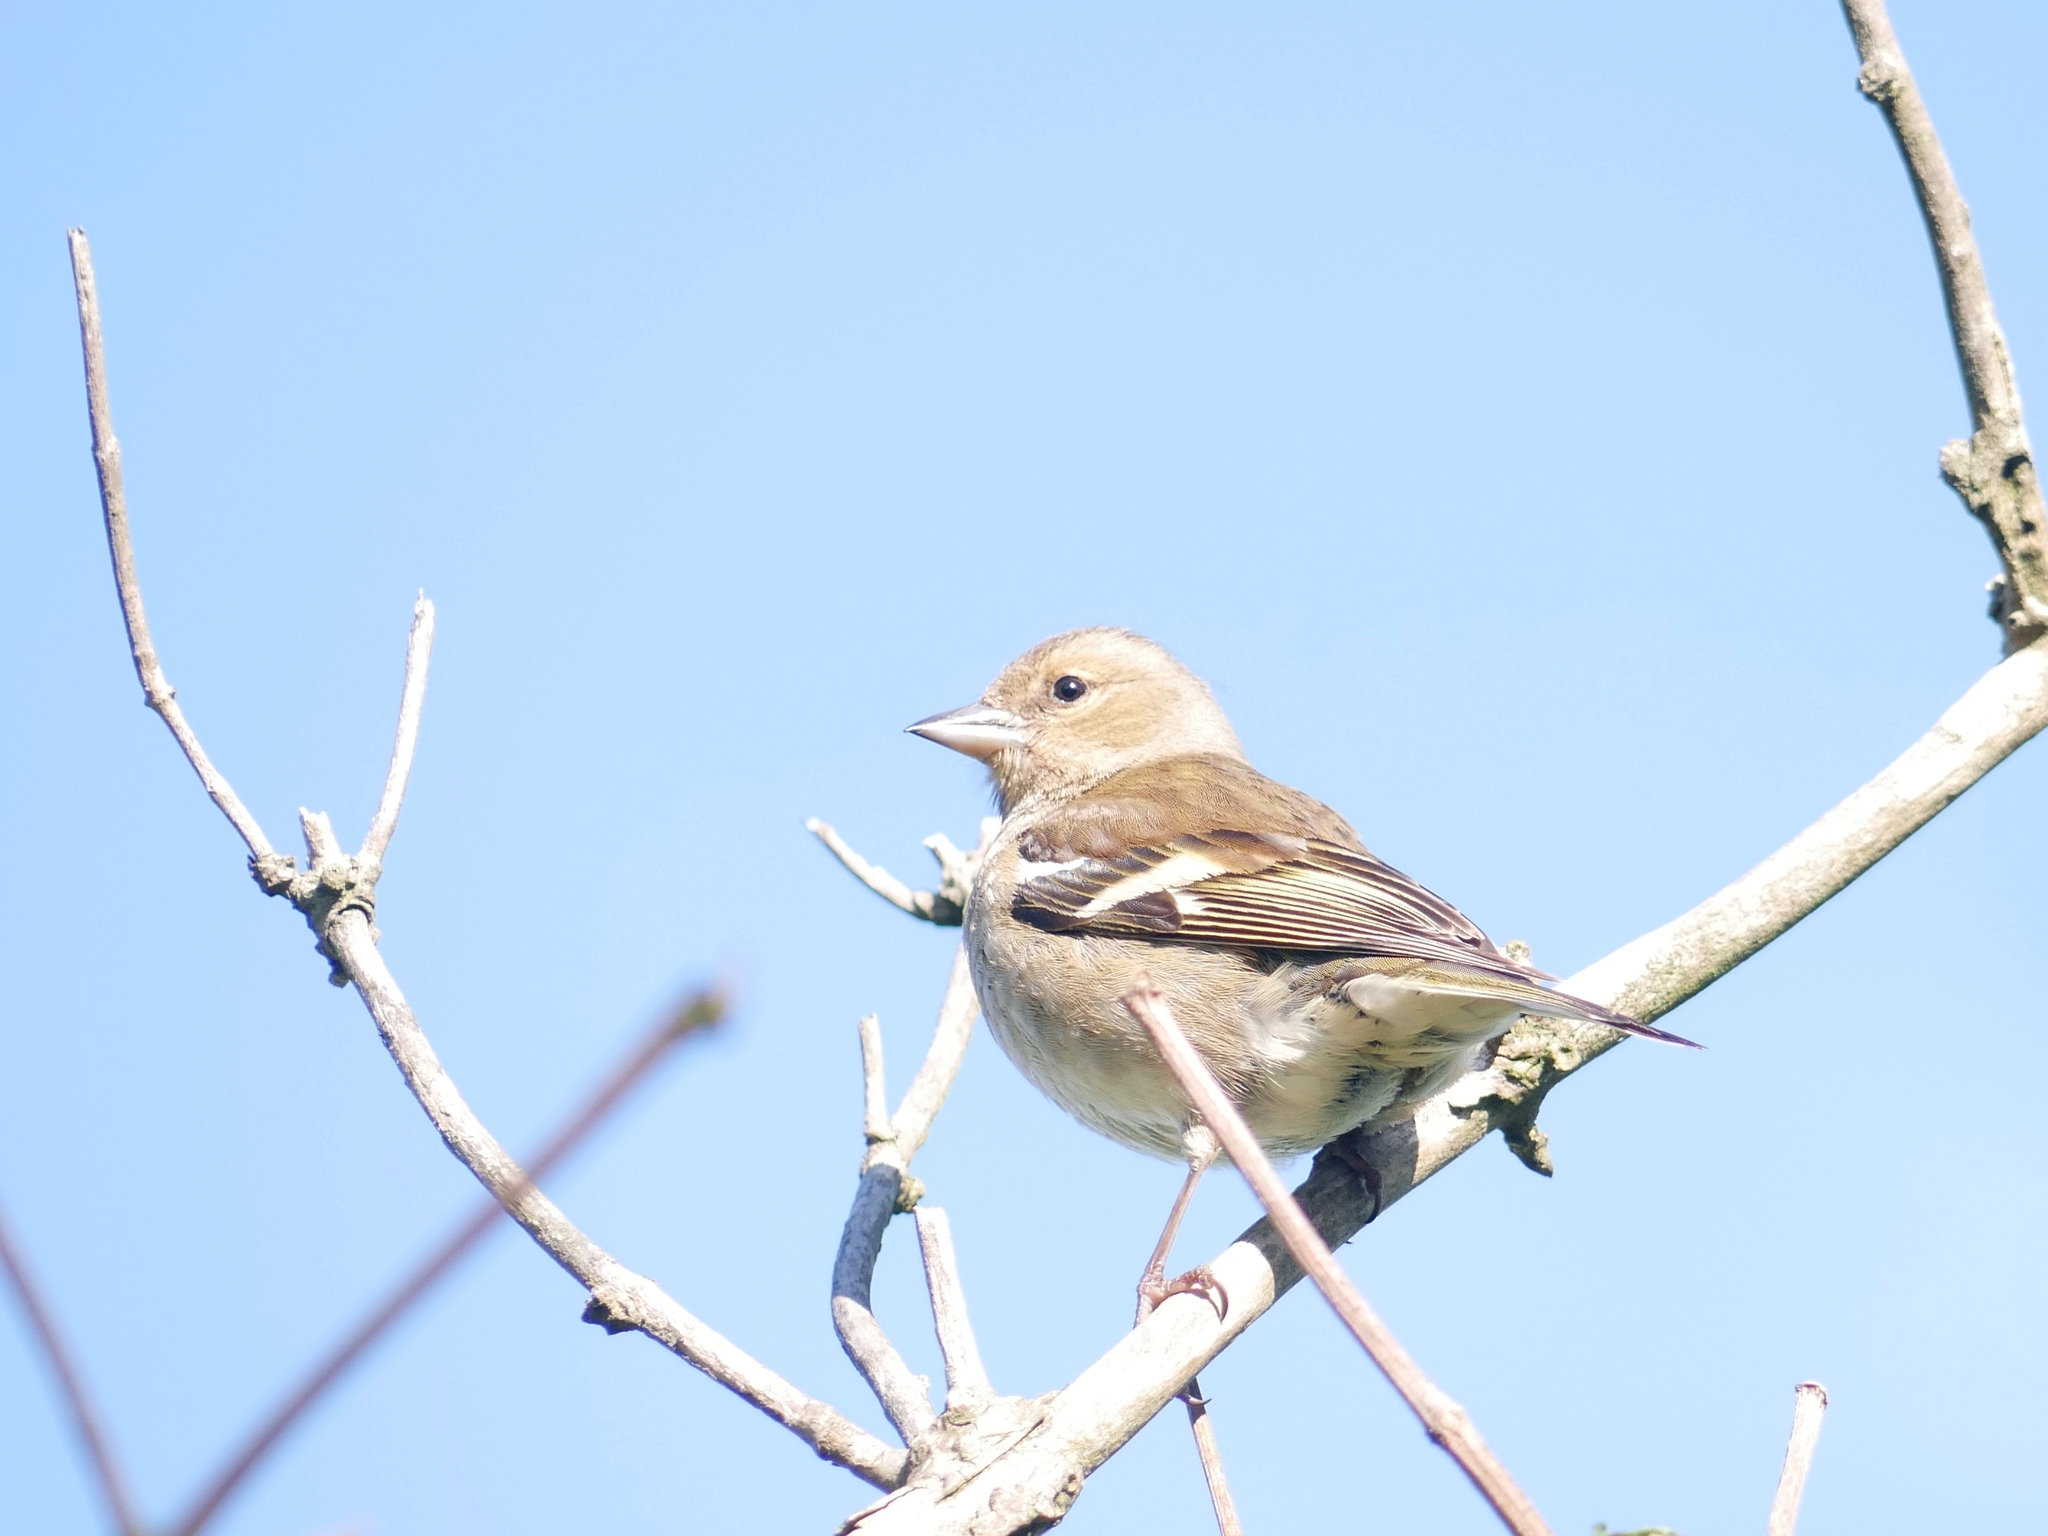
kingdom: Animalia
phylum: Chordata
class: Aves
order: Passeriformes
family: Fringillidae
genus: Fringilla
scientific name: Fringilla coelebs
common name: Common chaffinch
